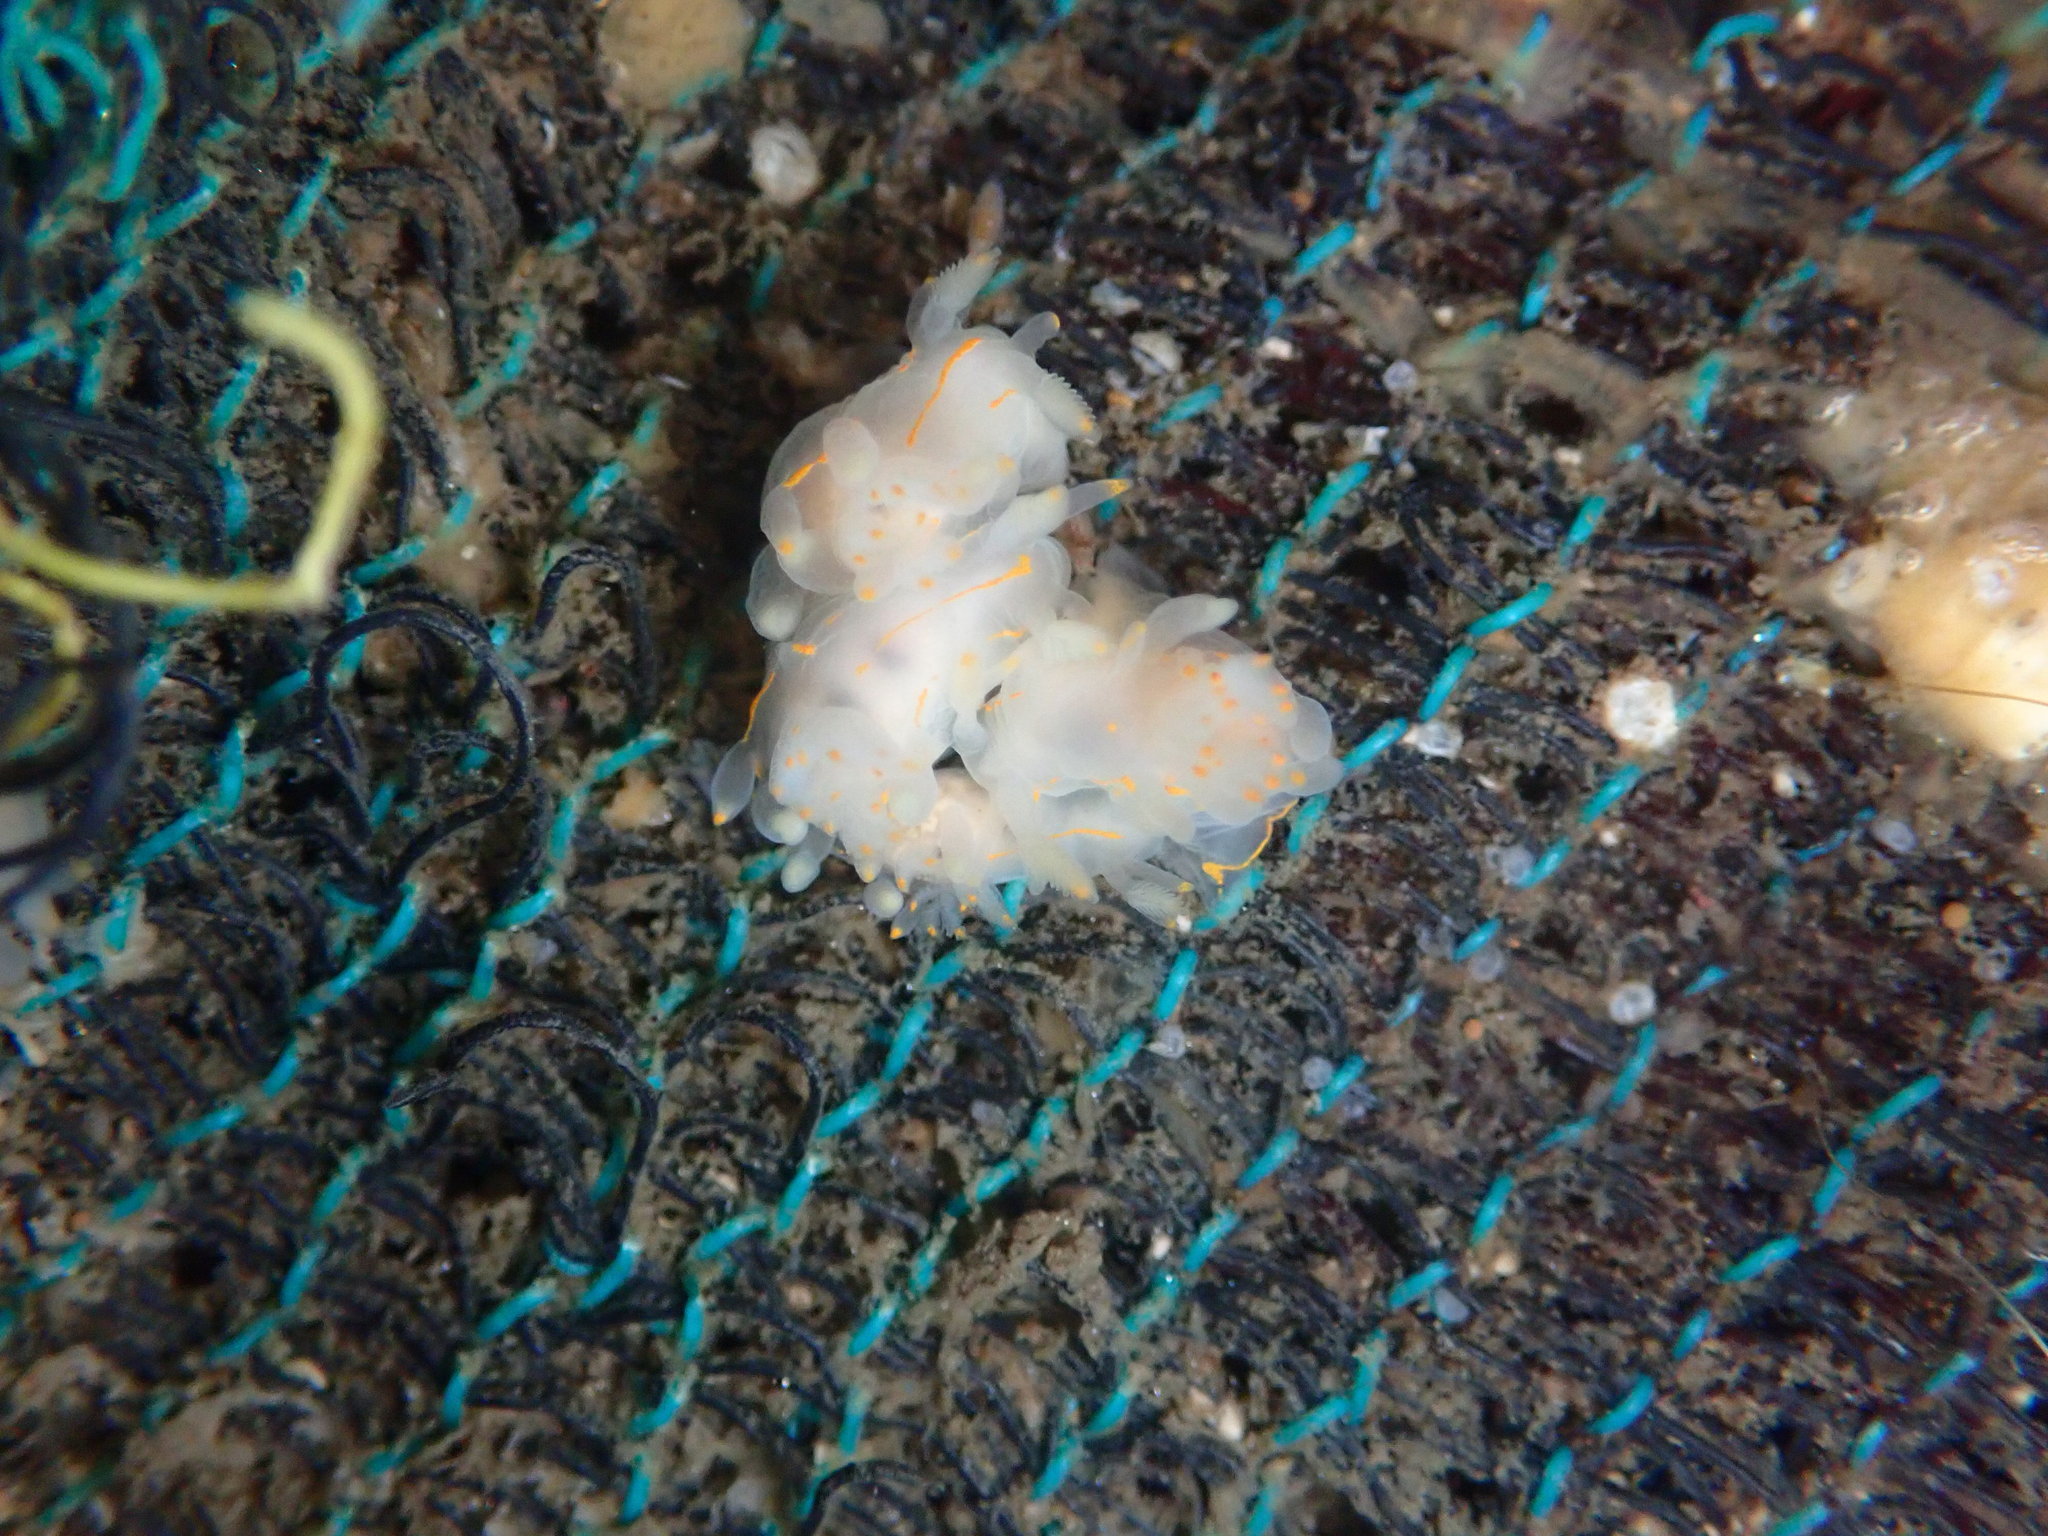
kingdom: Animalia
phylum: Mollusca
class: Gastropoda
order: Nudibranchia
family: Goniodorididae
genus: Ancula
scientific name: Ancula pacifica
